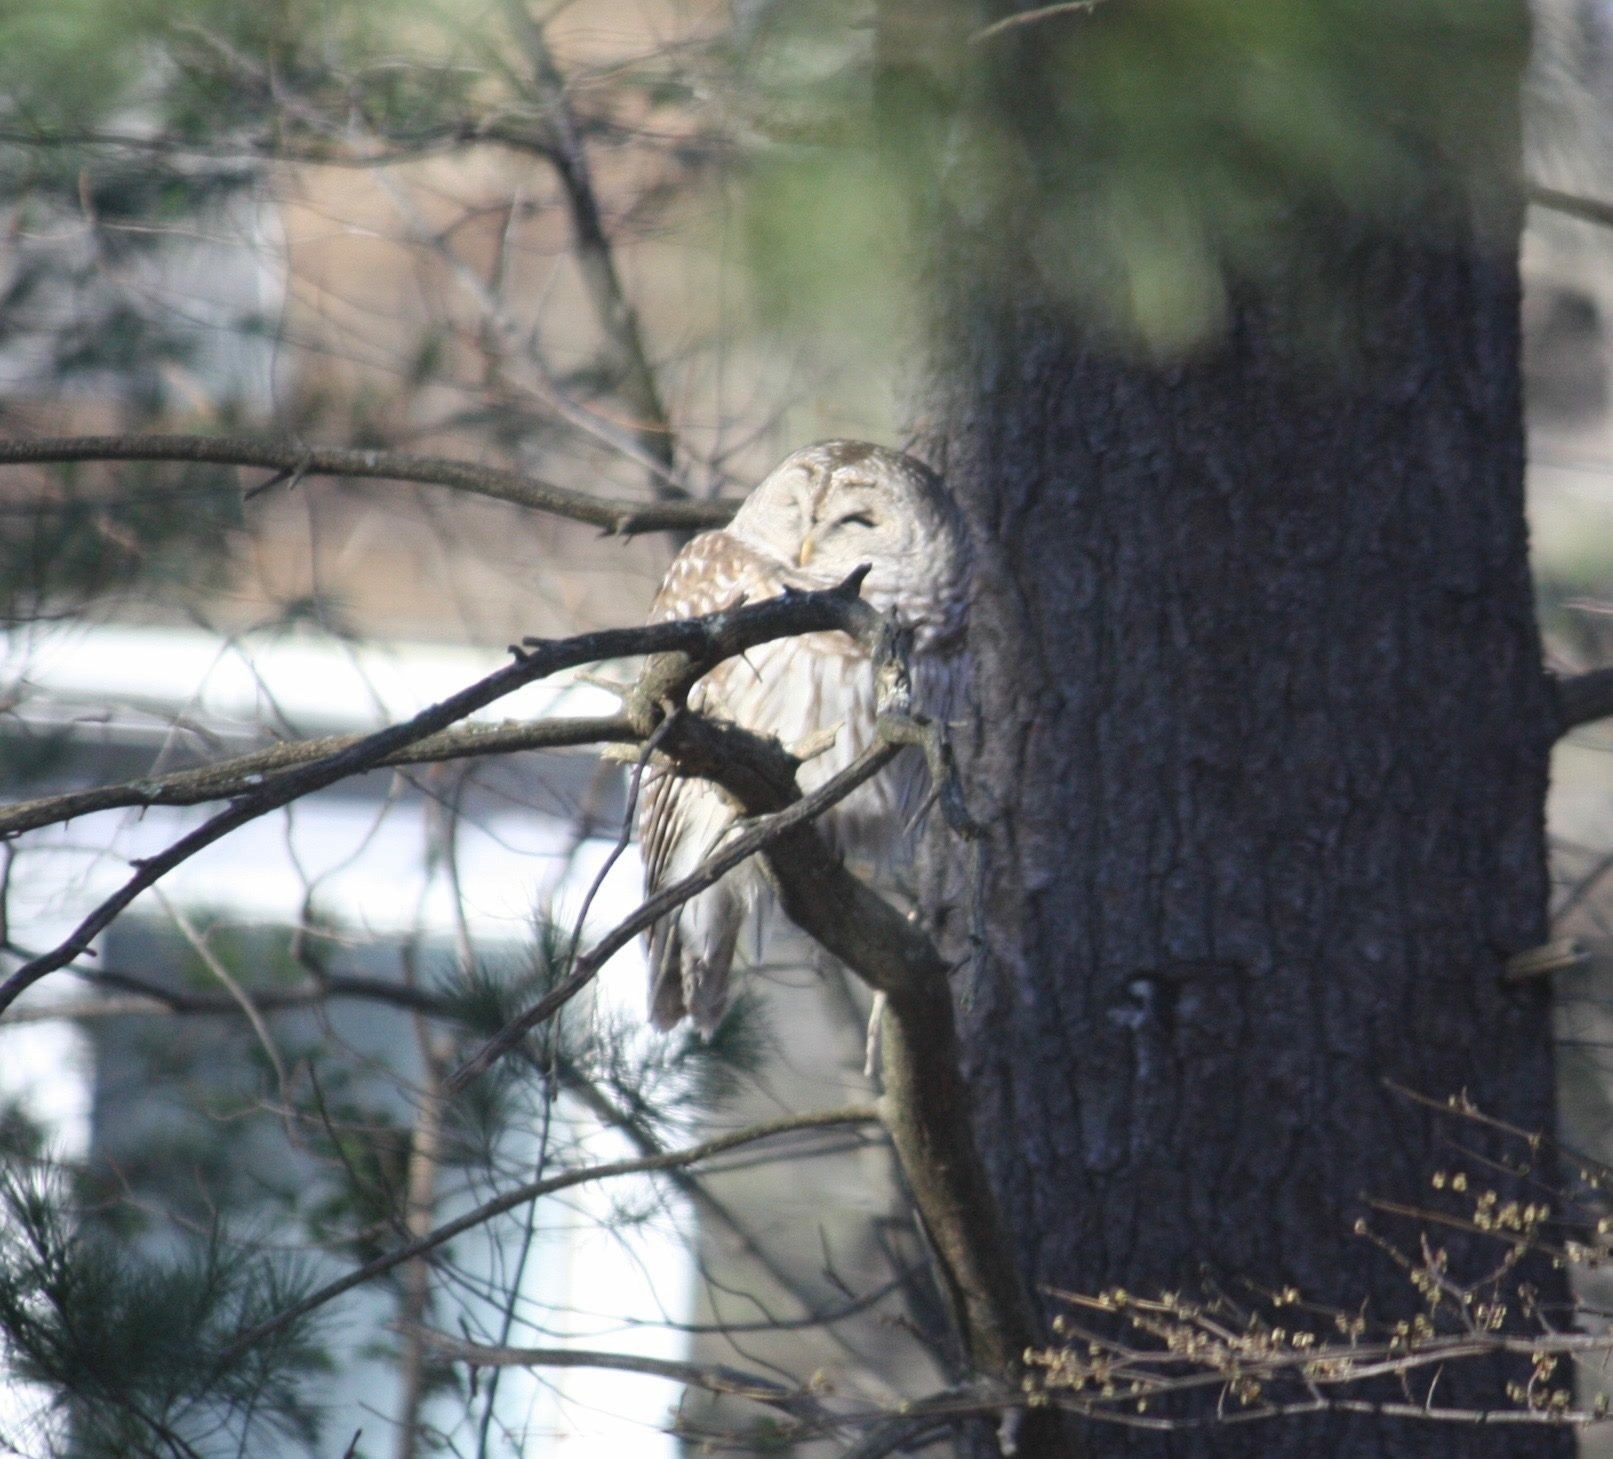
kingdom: Animalia
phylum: Chordata
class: Aves
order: Strigiformes
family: Strigidae
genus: Strix
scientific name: Strix varia
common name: Barred owl
